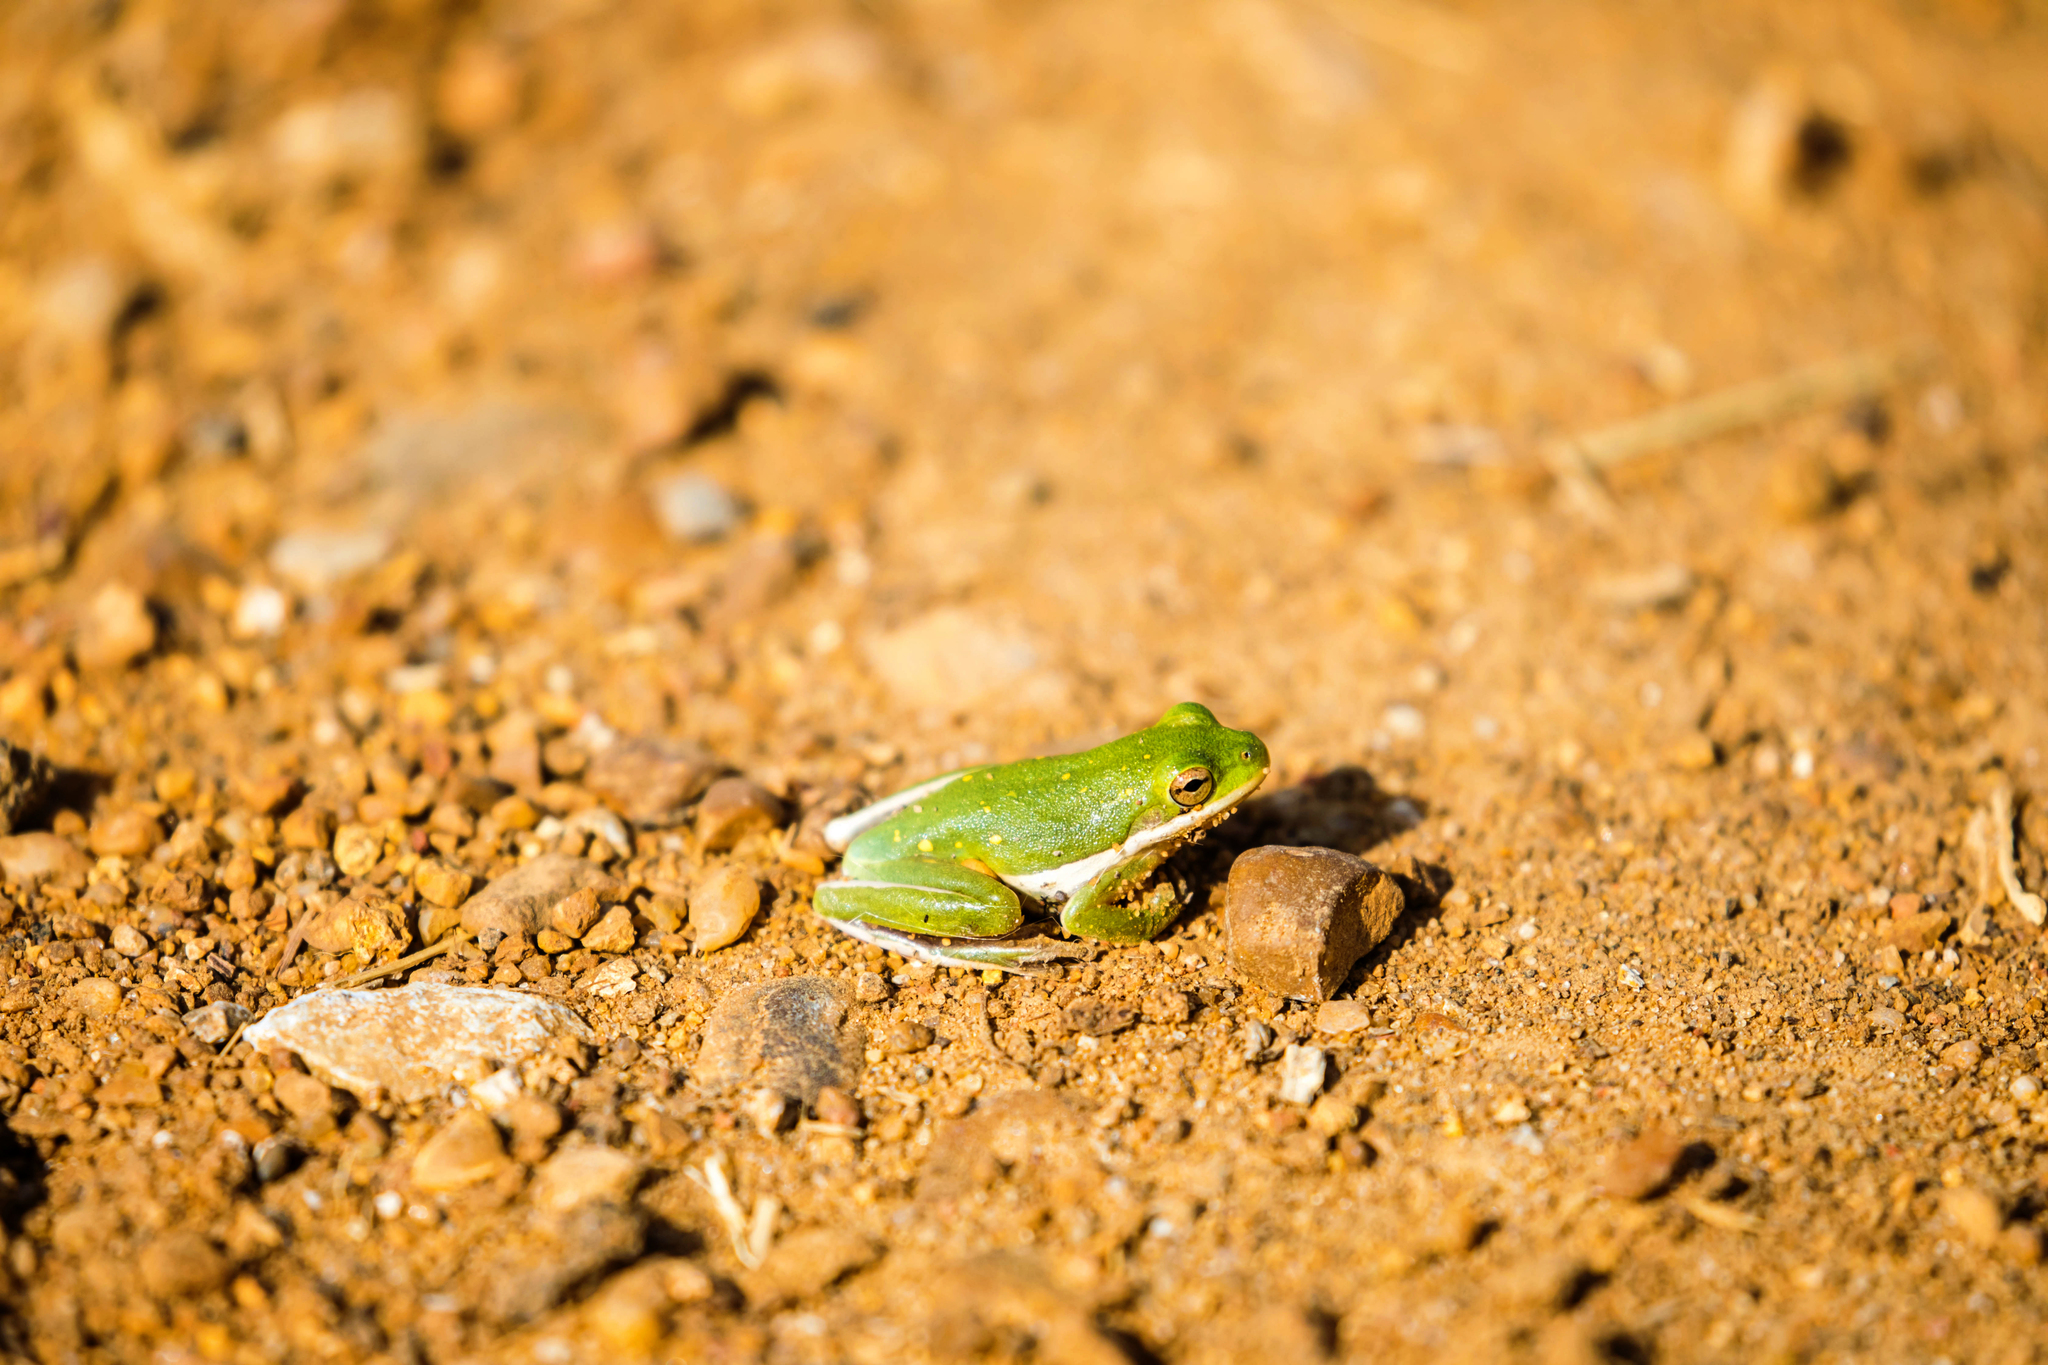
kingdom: Animalia
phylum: Chordata
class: Amphibia
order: Anura
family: Hylidae
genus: Dryophytes
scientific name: Dryophytes cinereus
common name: Green treefrog
